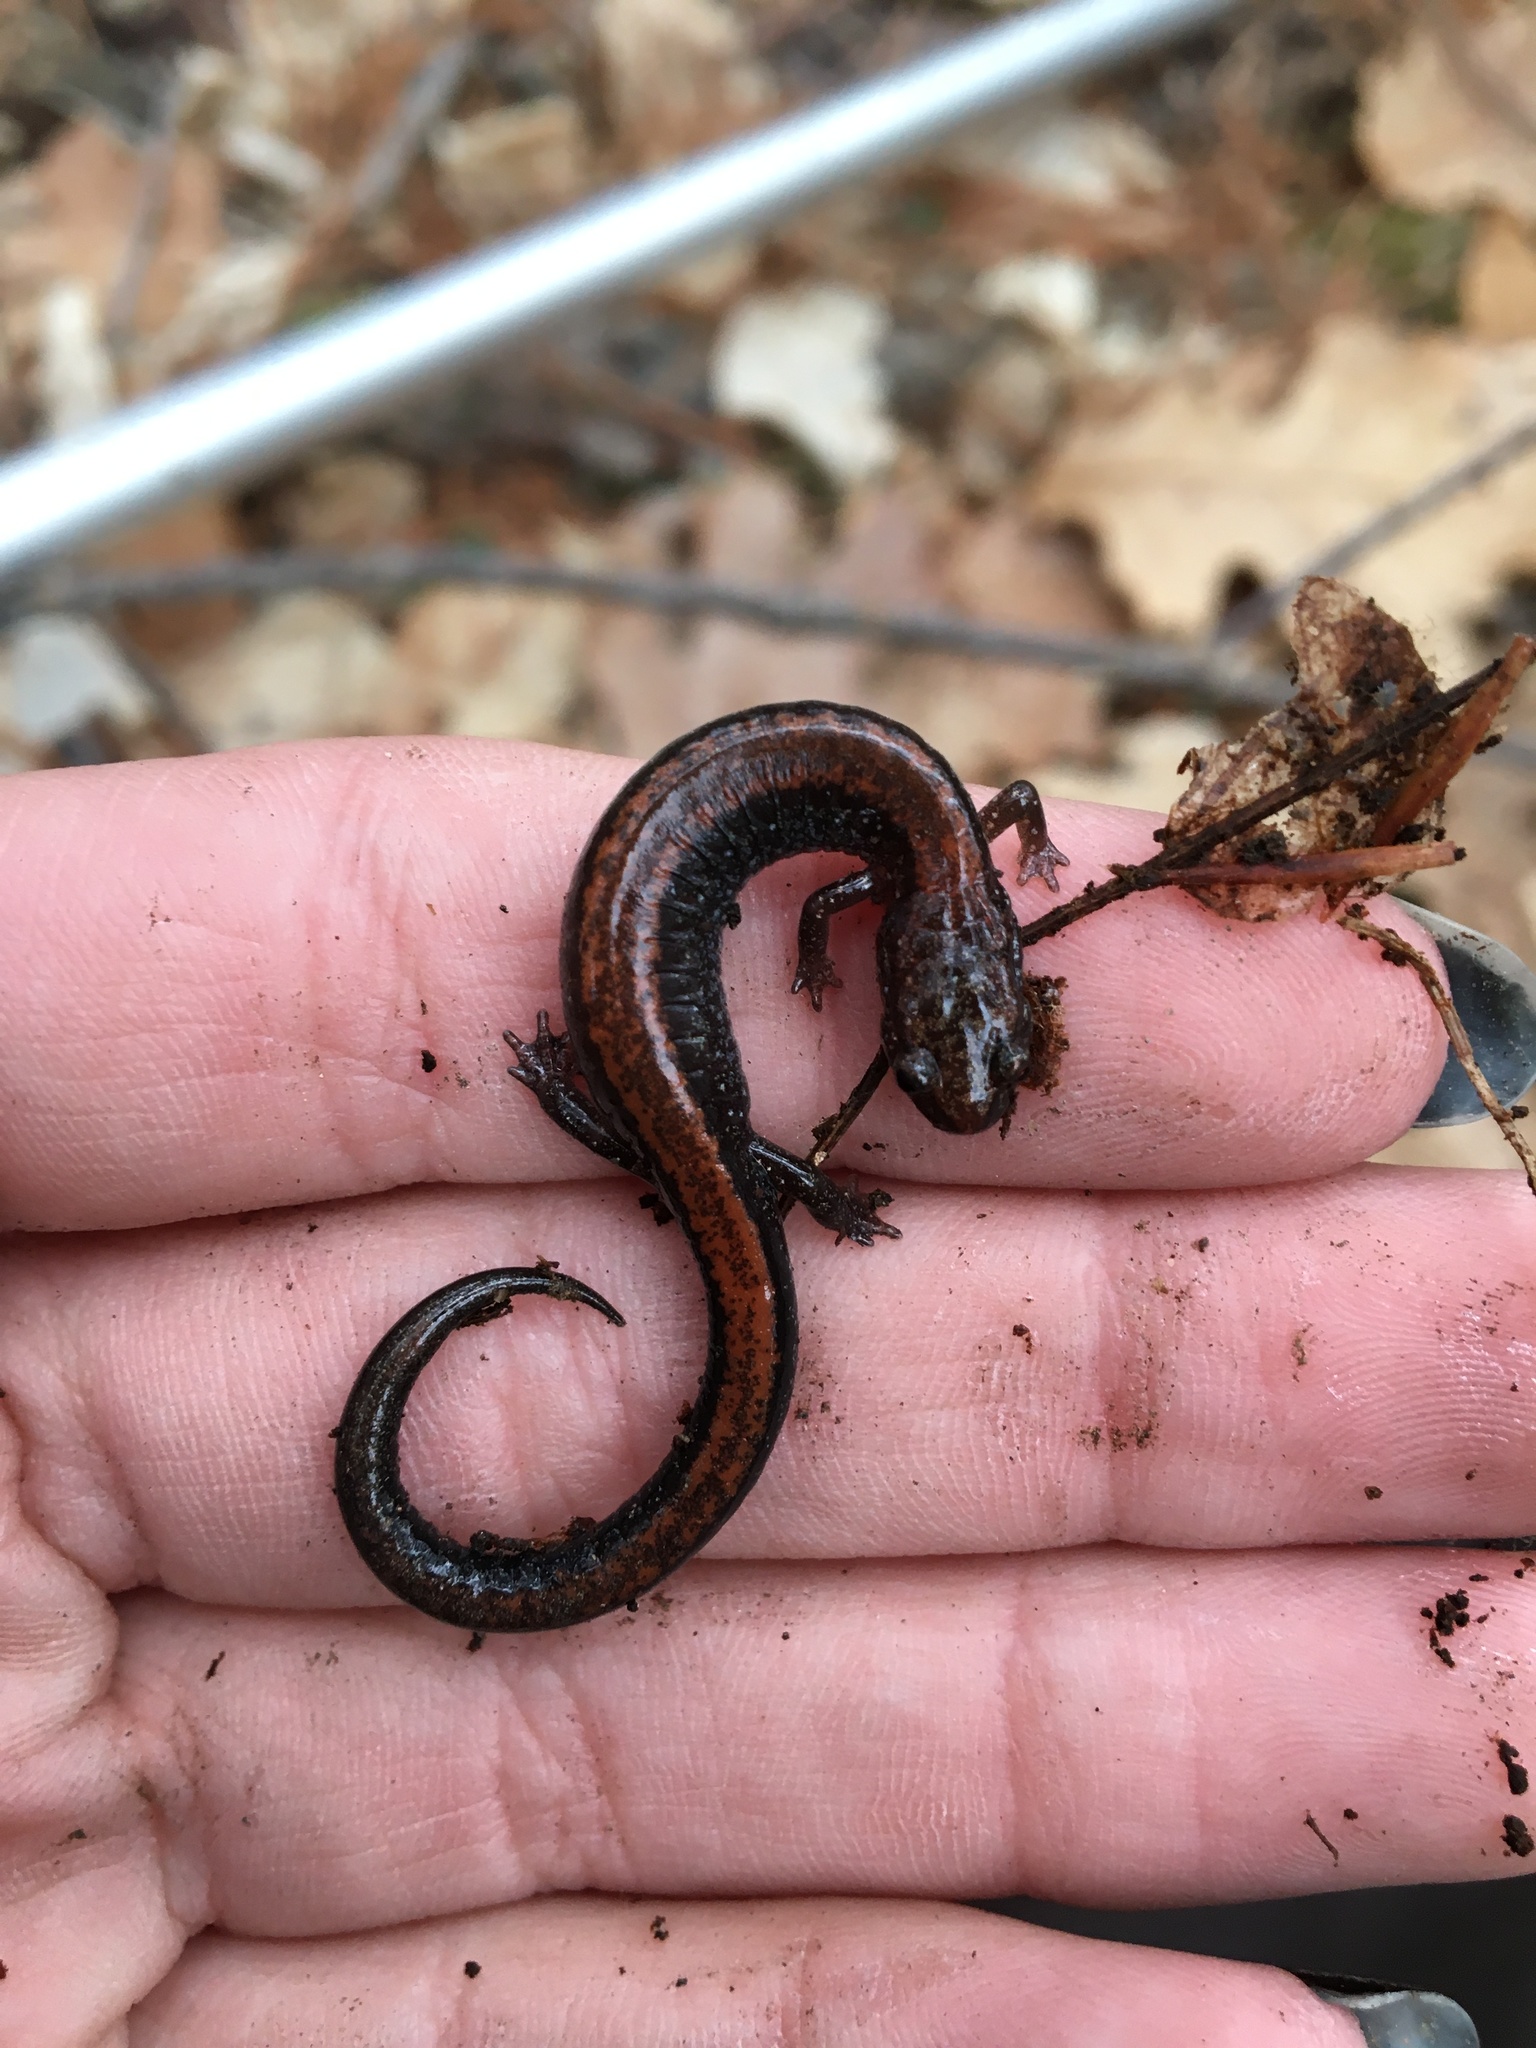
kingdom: Animalia
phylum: Chordata
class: Amphibia
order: Caudata
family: Plethodontidae
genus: Plethodon
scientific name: Plethodon cinereus
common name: Redback salamander
